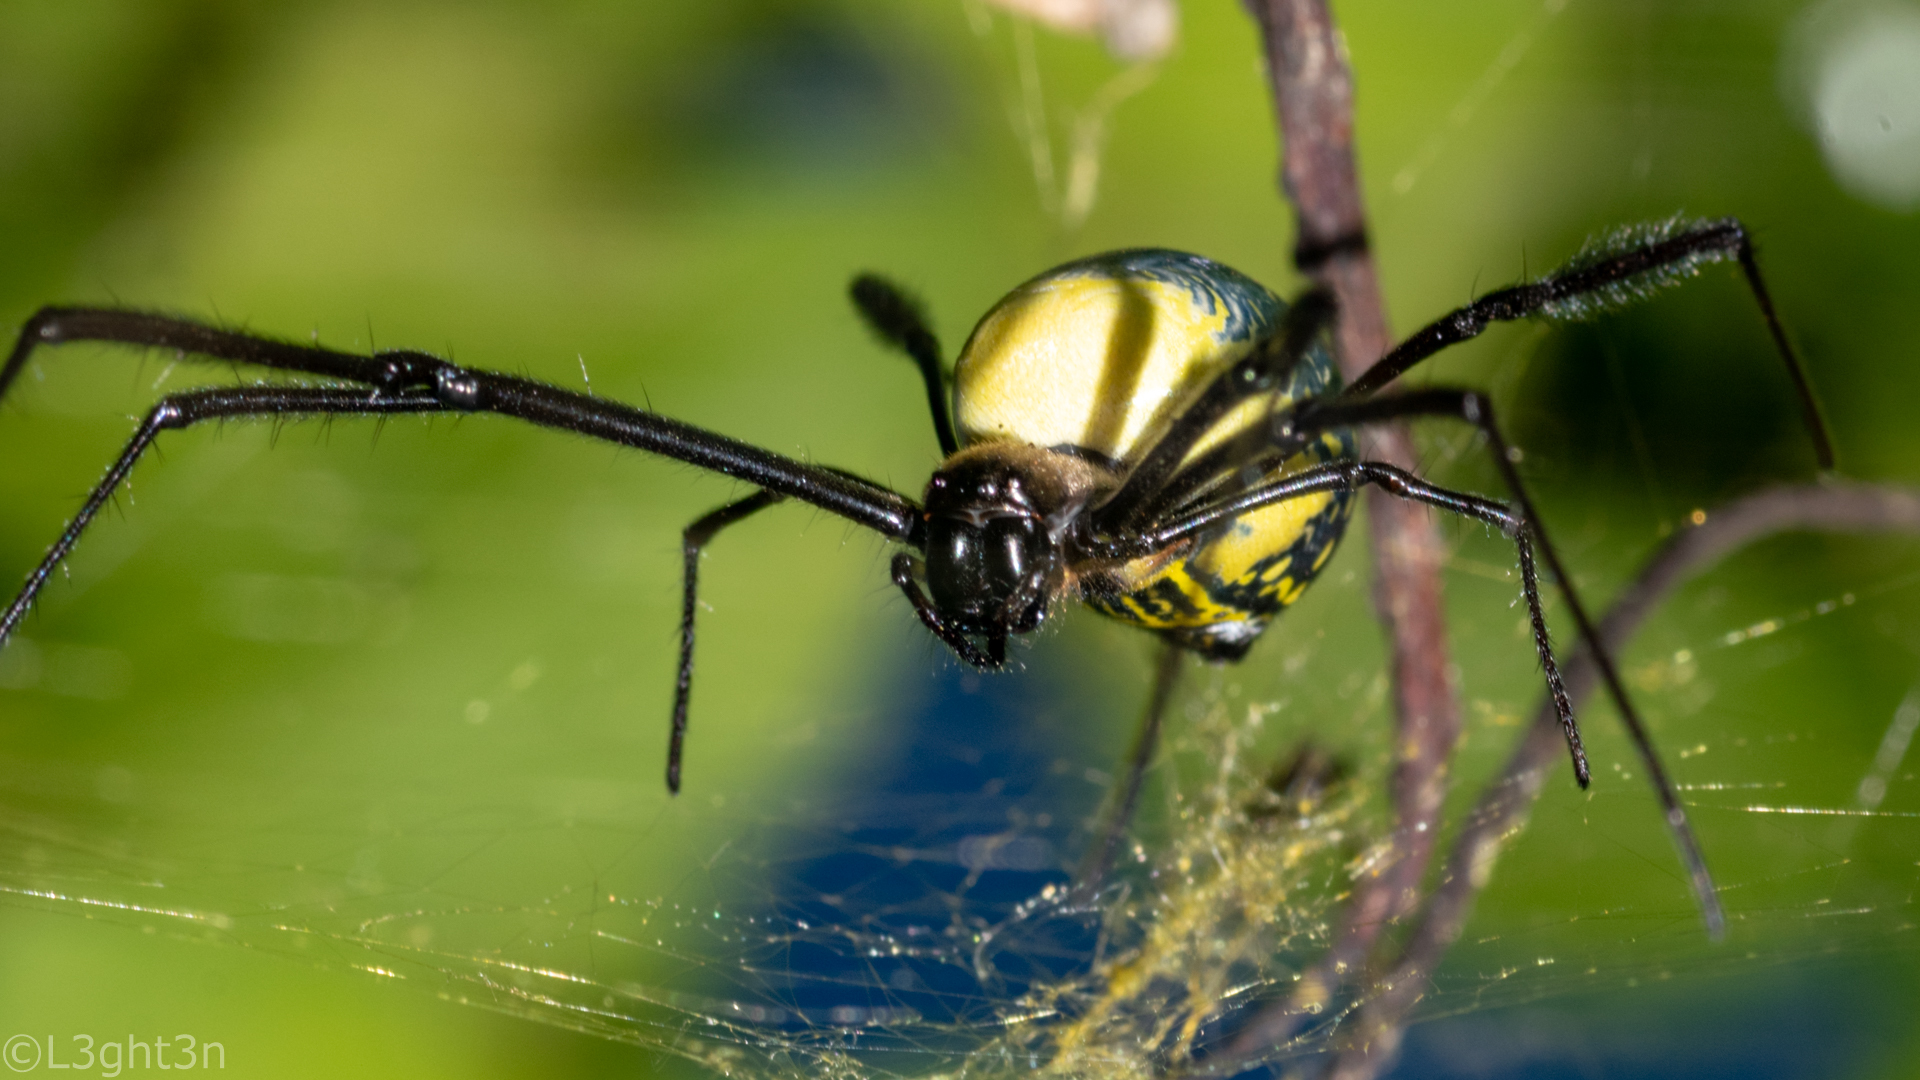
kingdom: Animalia
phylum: Arthropoda
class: Arachnida
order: Araneae
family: Araneidae
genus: Trichonephila
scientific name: Trichonephila fenestrata
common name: Hairy golden orb weaver
